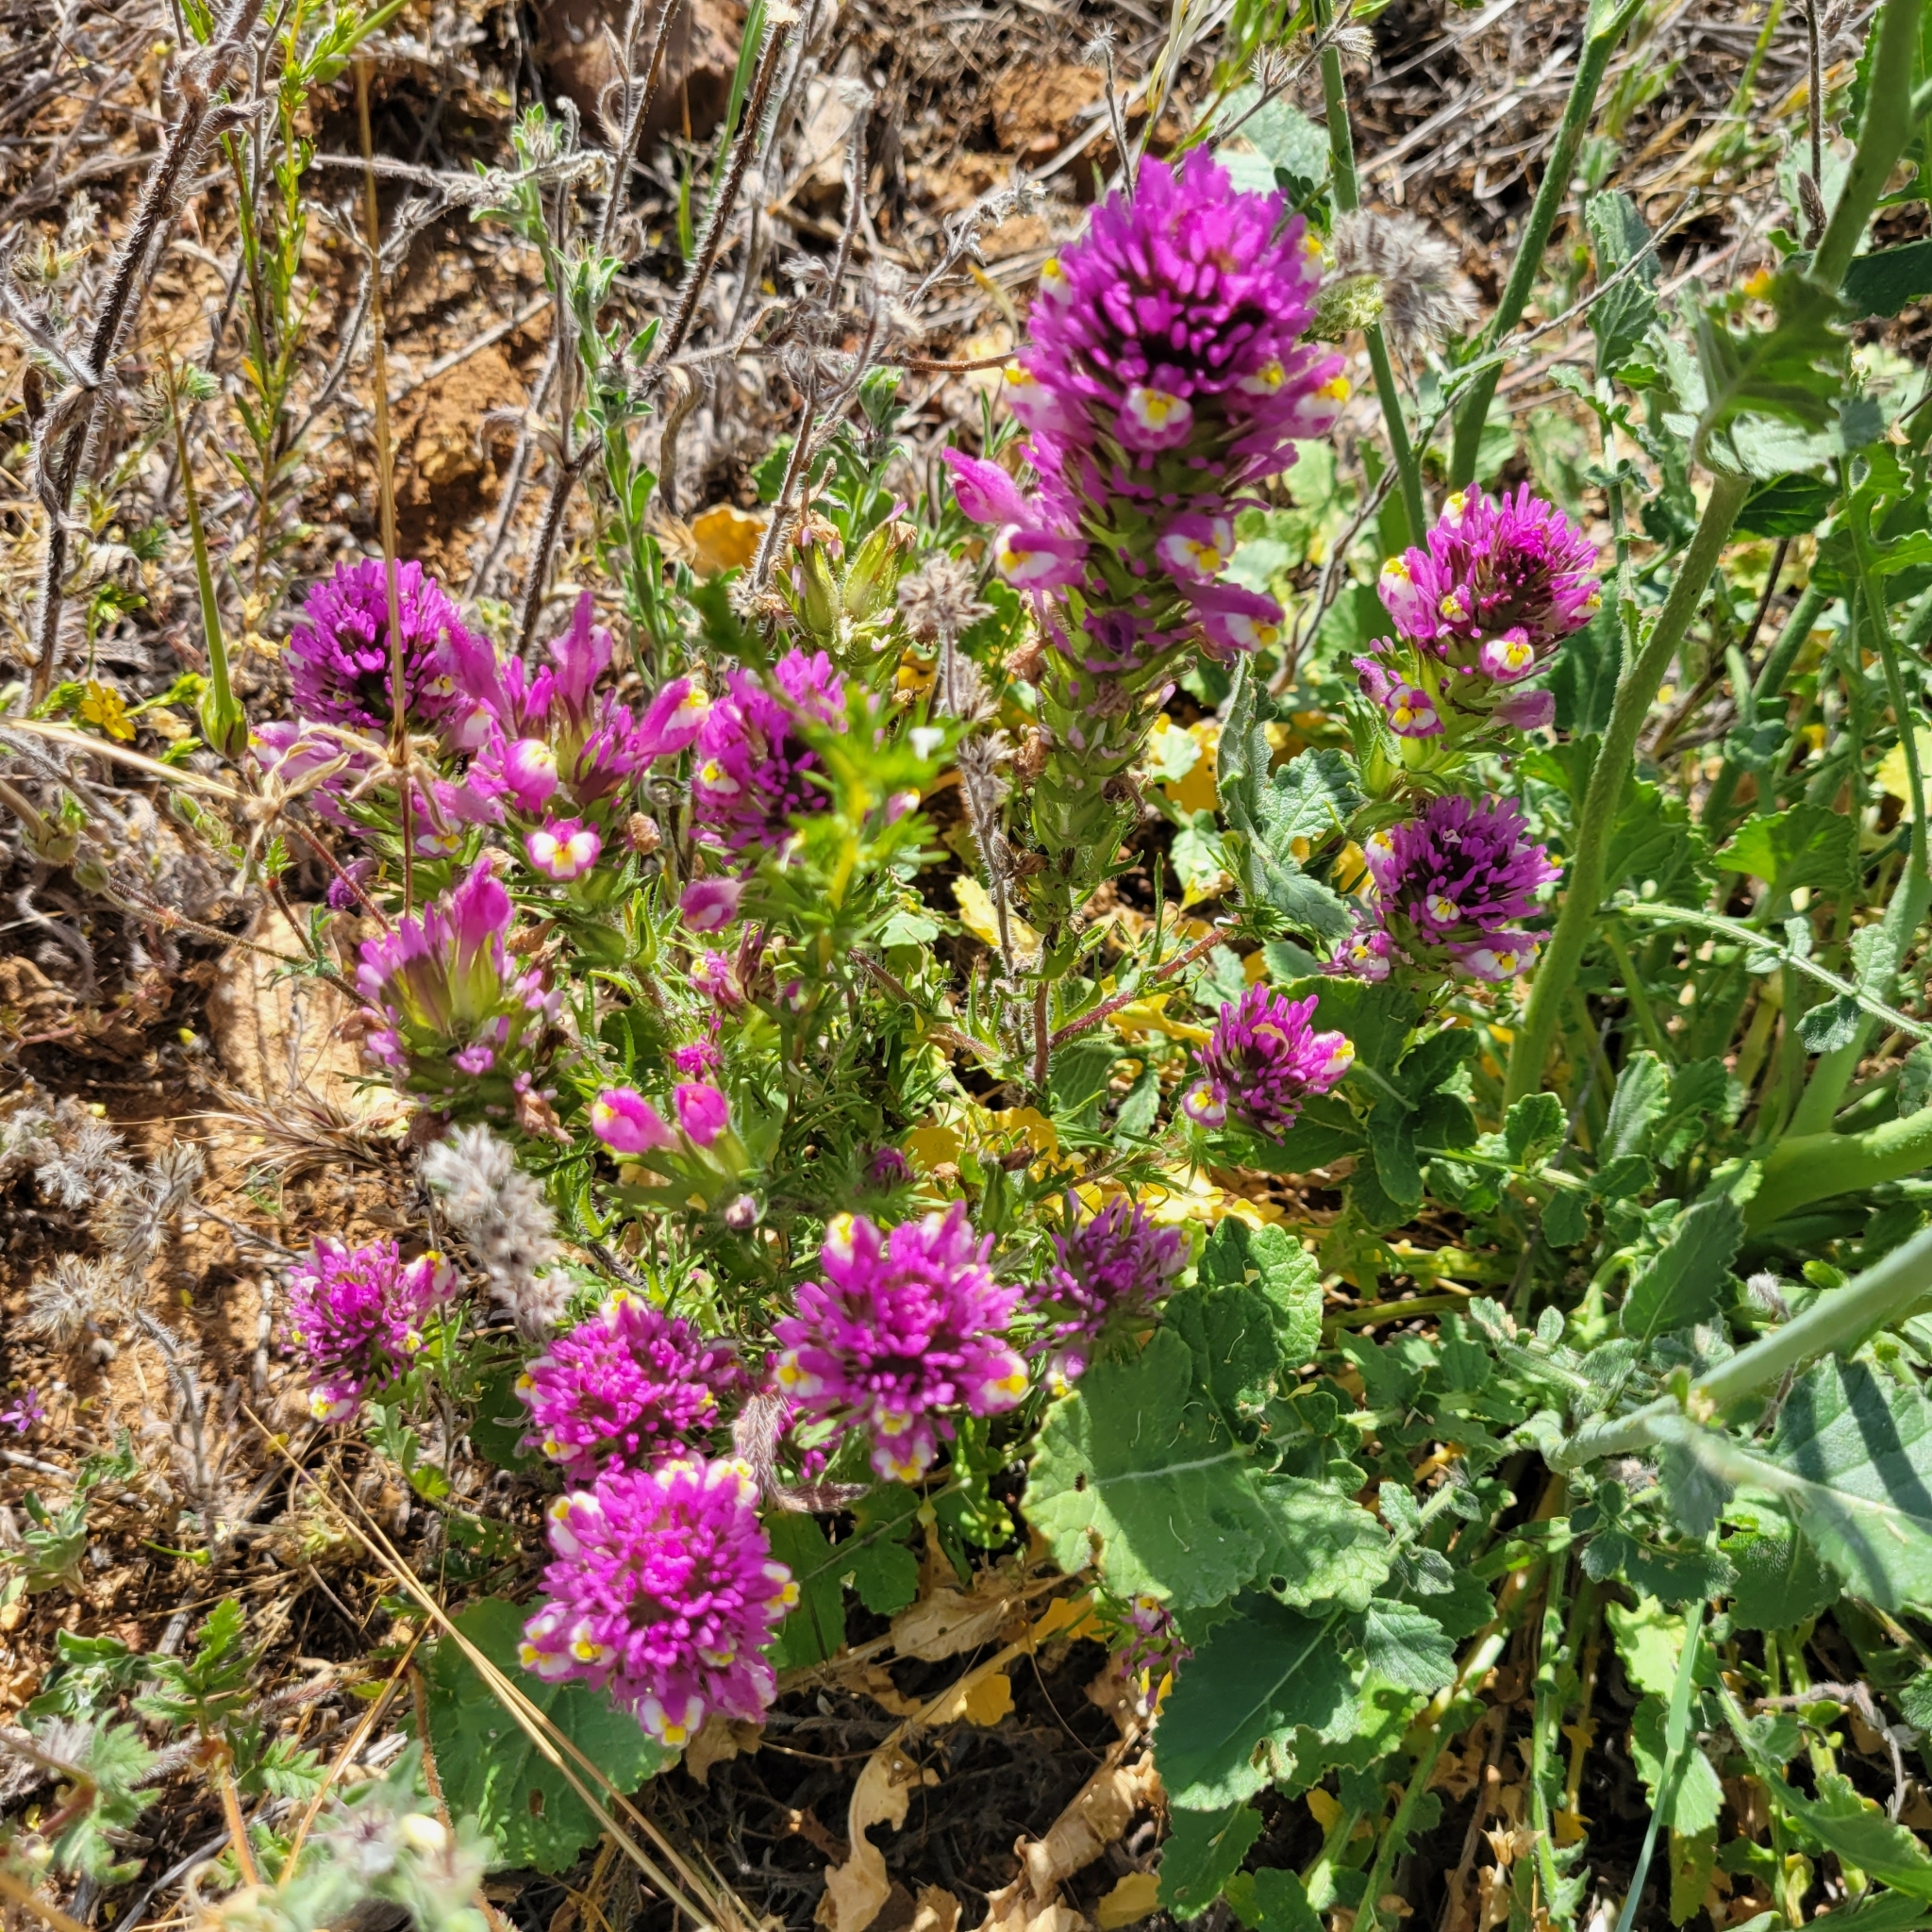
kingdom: Plantae
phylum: Tracheophyta
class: Magnoliopsida
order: Lamiales
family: Orobanchaceae
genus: Castilleja
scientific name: Castilleja exserta
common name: Purple owl-clover
